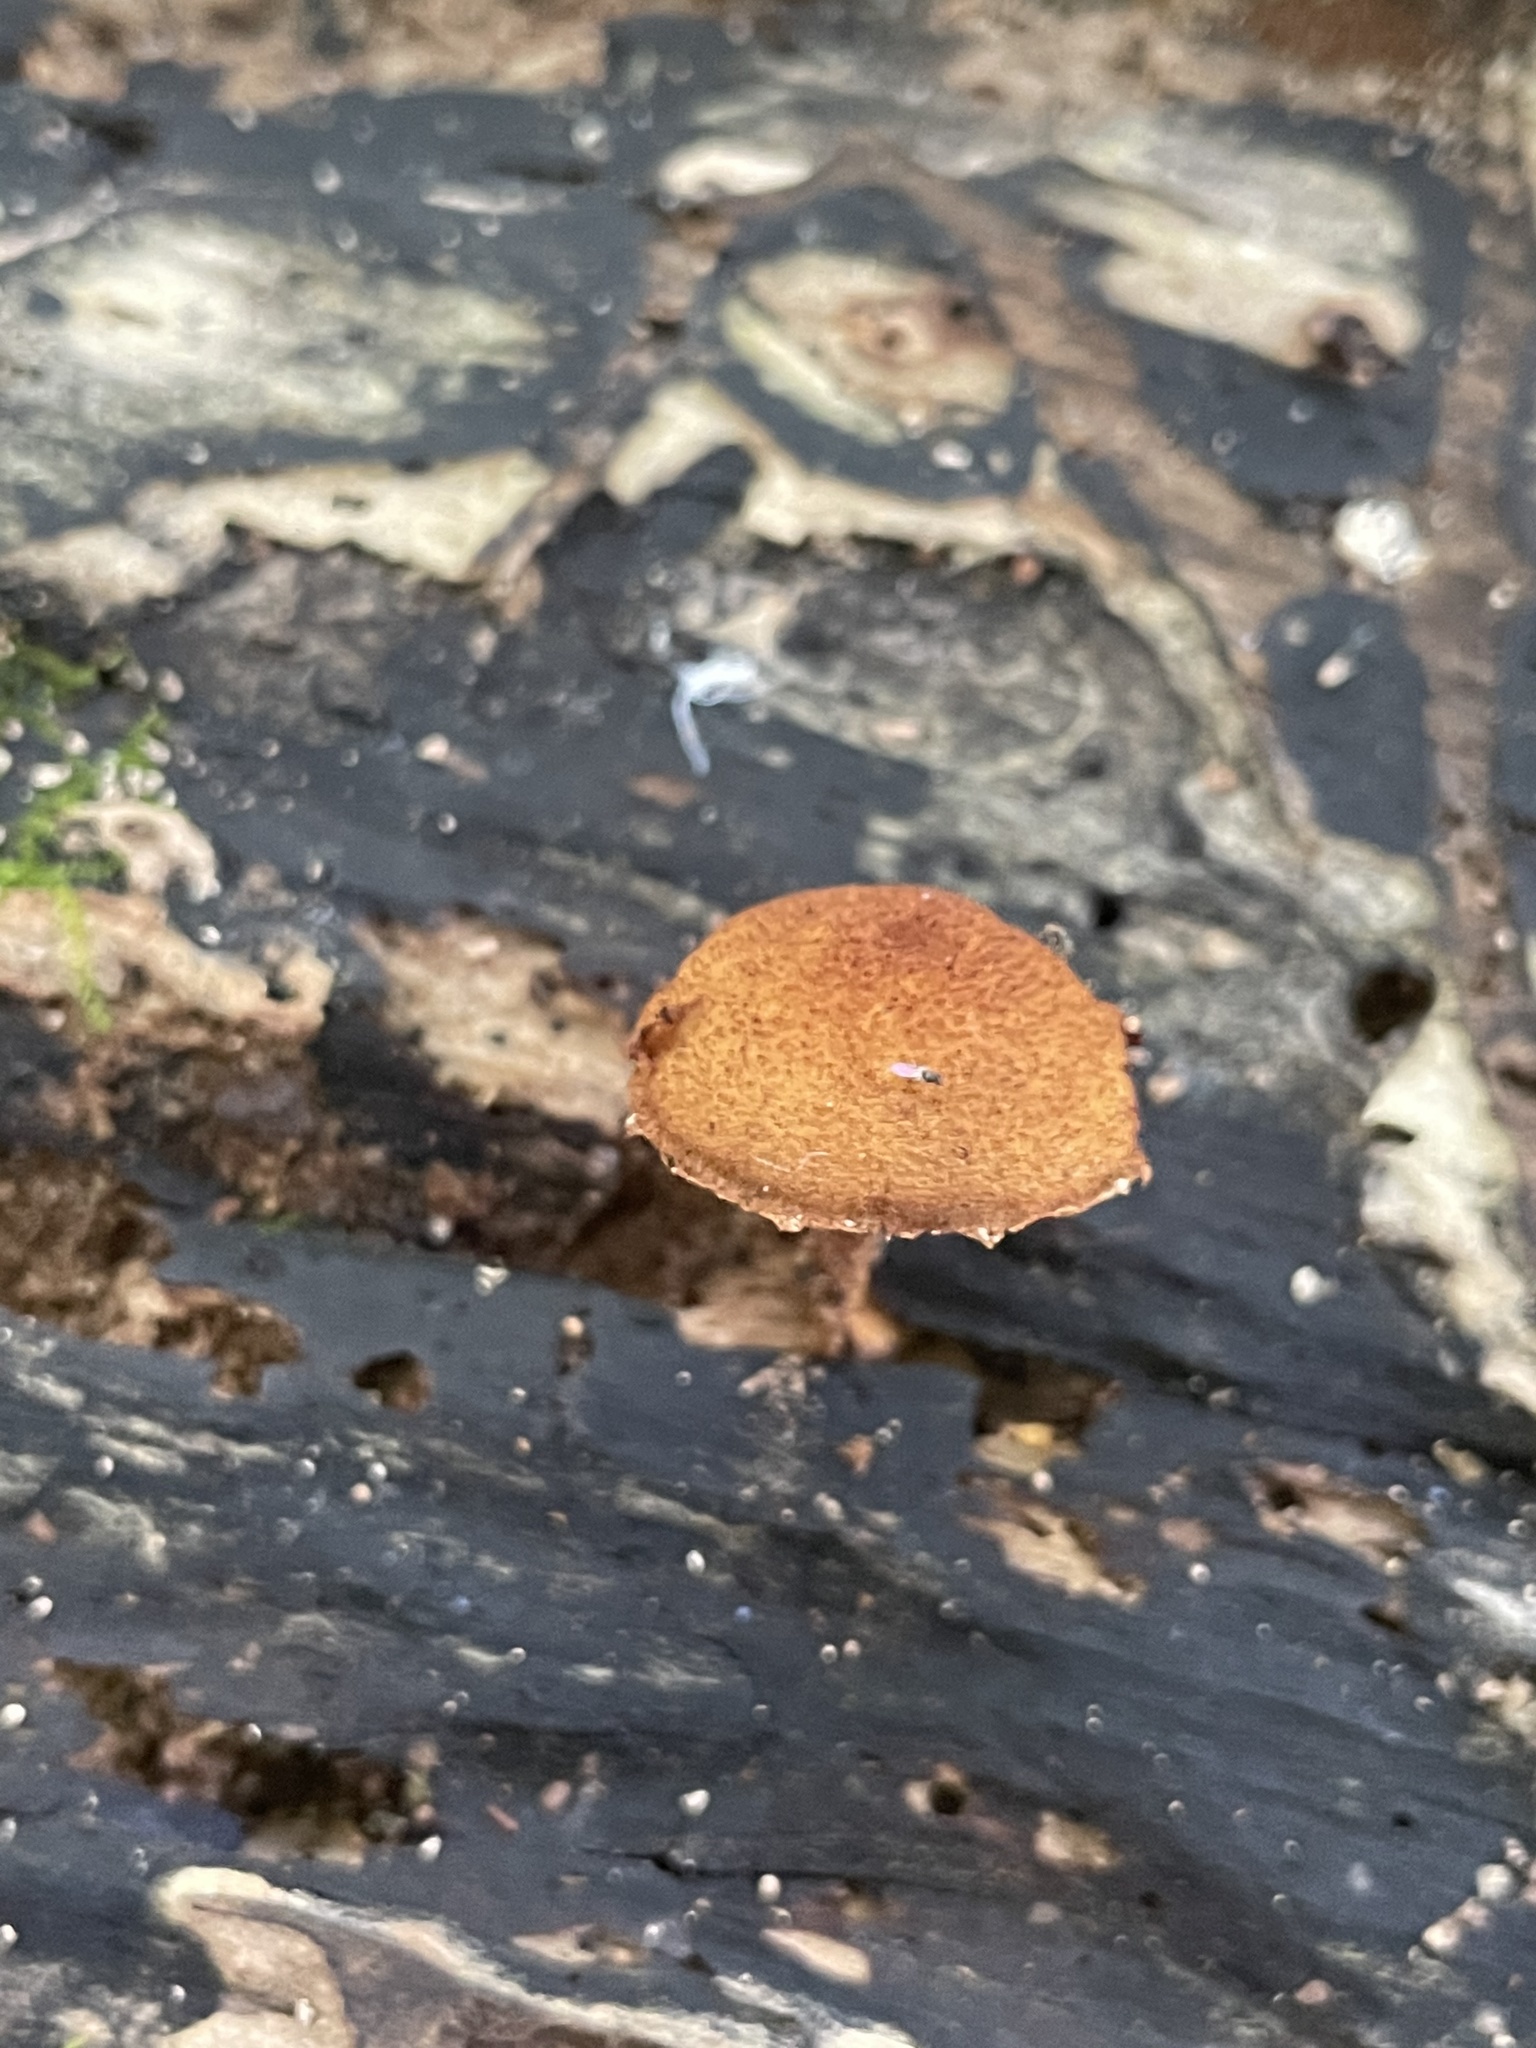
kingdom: Fungi
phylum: Basidiomycota
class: Agaricomycetes
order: Agaricales
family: Tubariaceae
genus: Flammulaster
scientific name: Flammulaster erinaceellus
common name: Powder-scale pholiota
